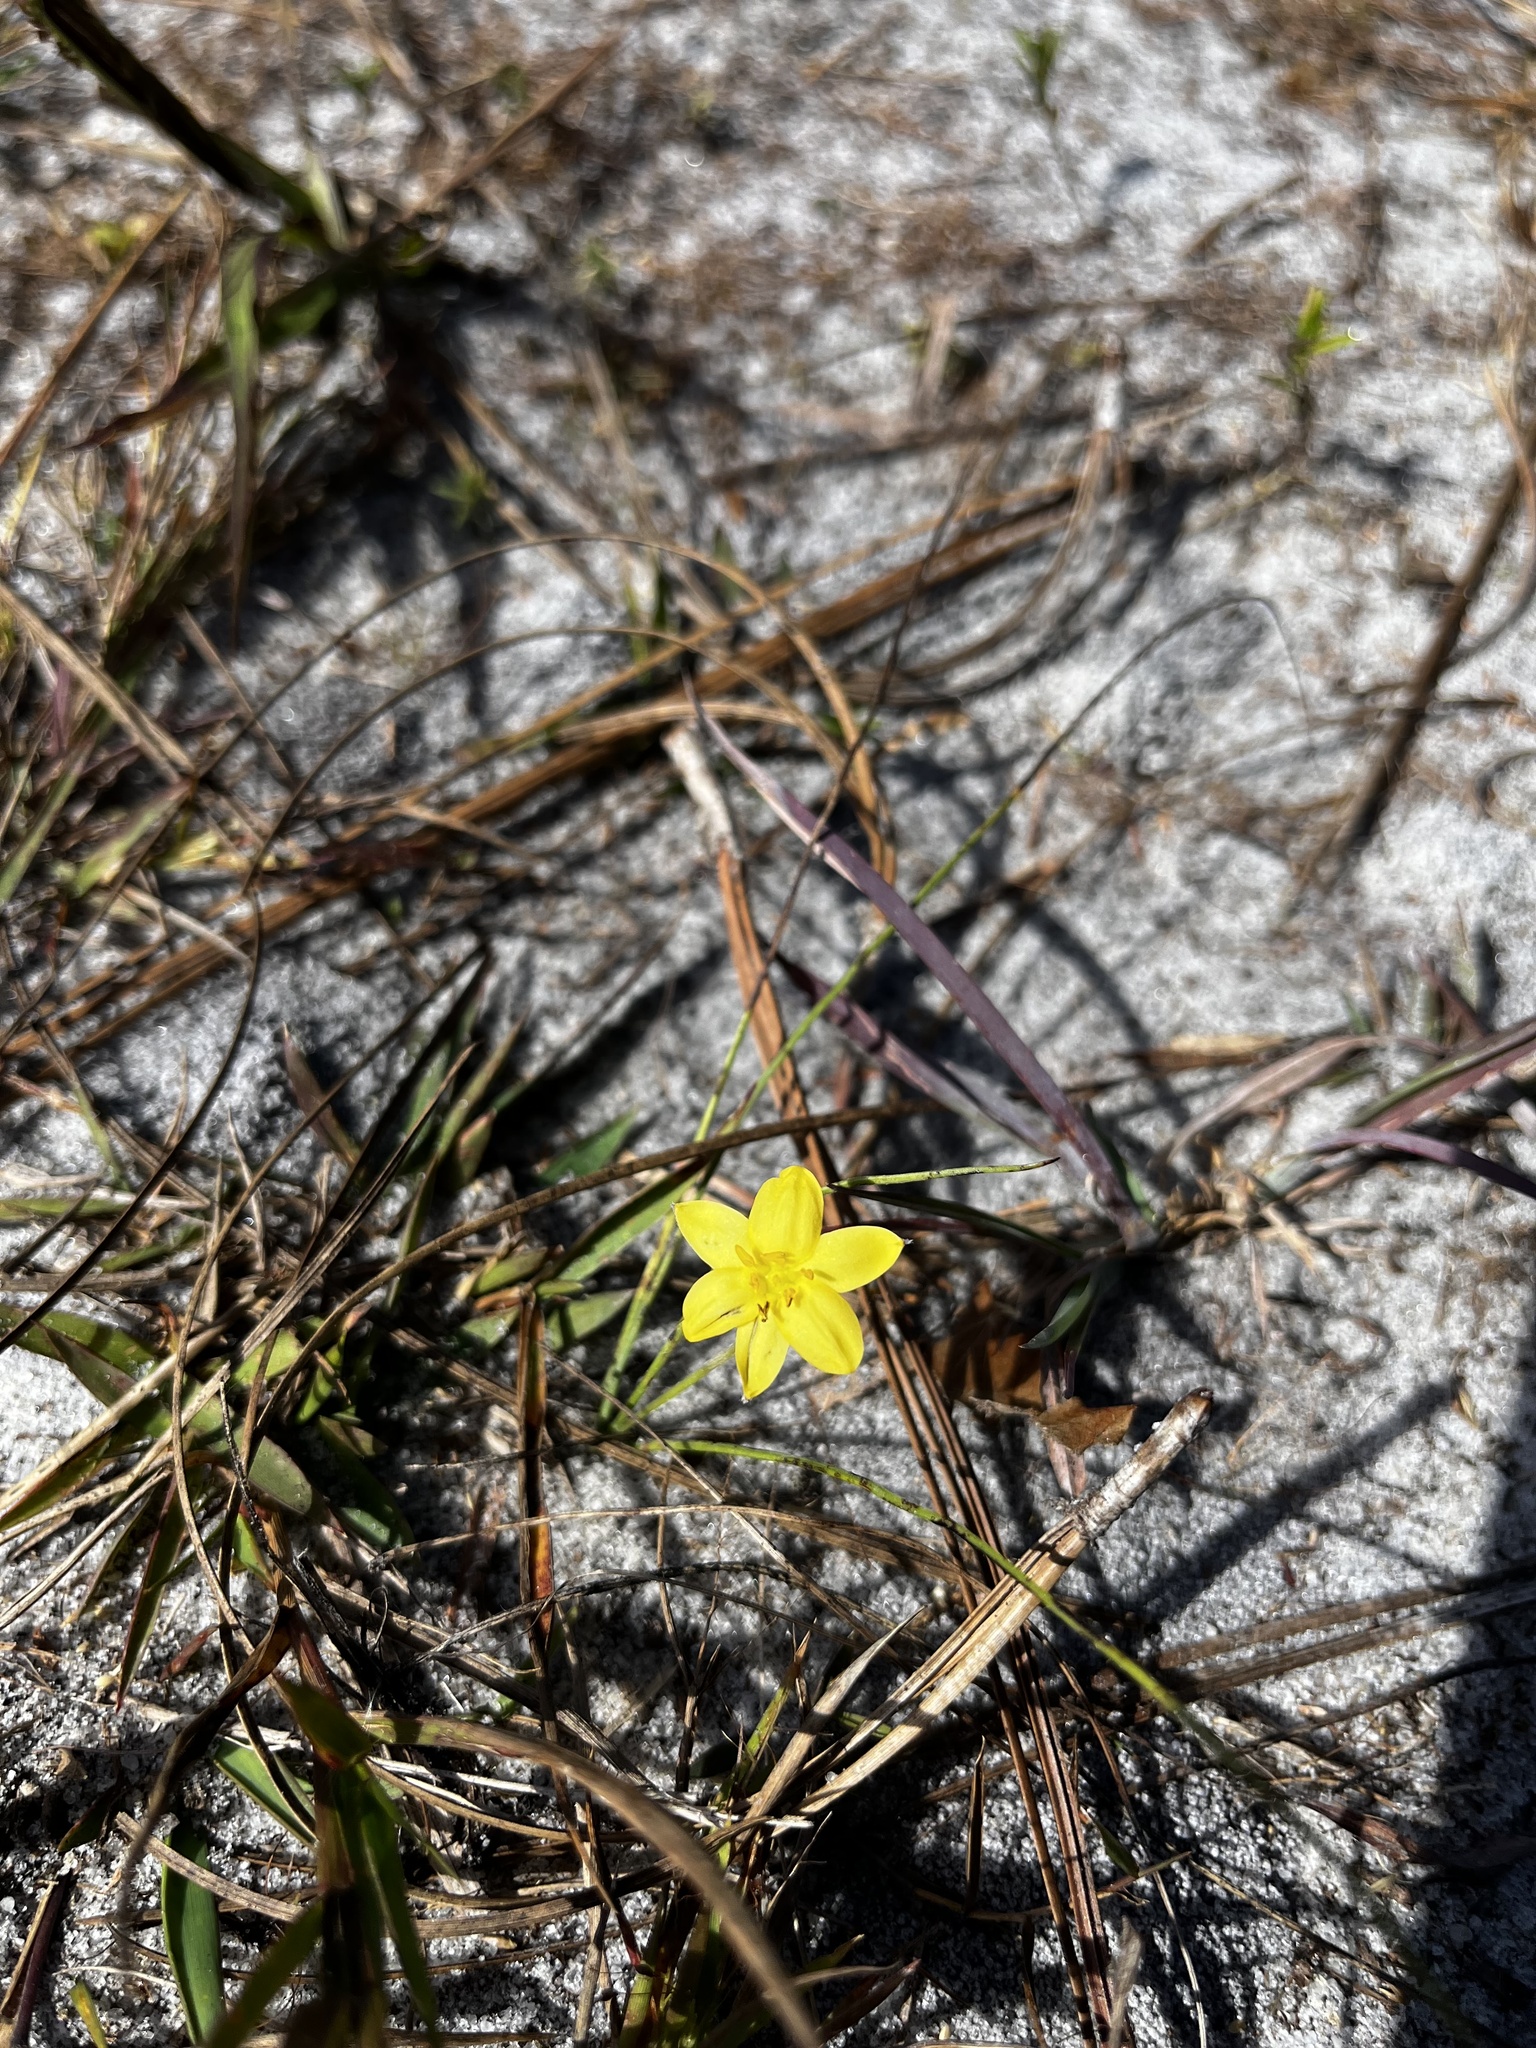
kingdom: Plantae
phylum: Tracheophyta
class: Liliopsida
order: Asparagales
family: Hypoxidaceae
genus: Hypoxis
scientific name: Hypoxis juncea
